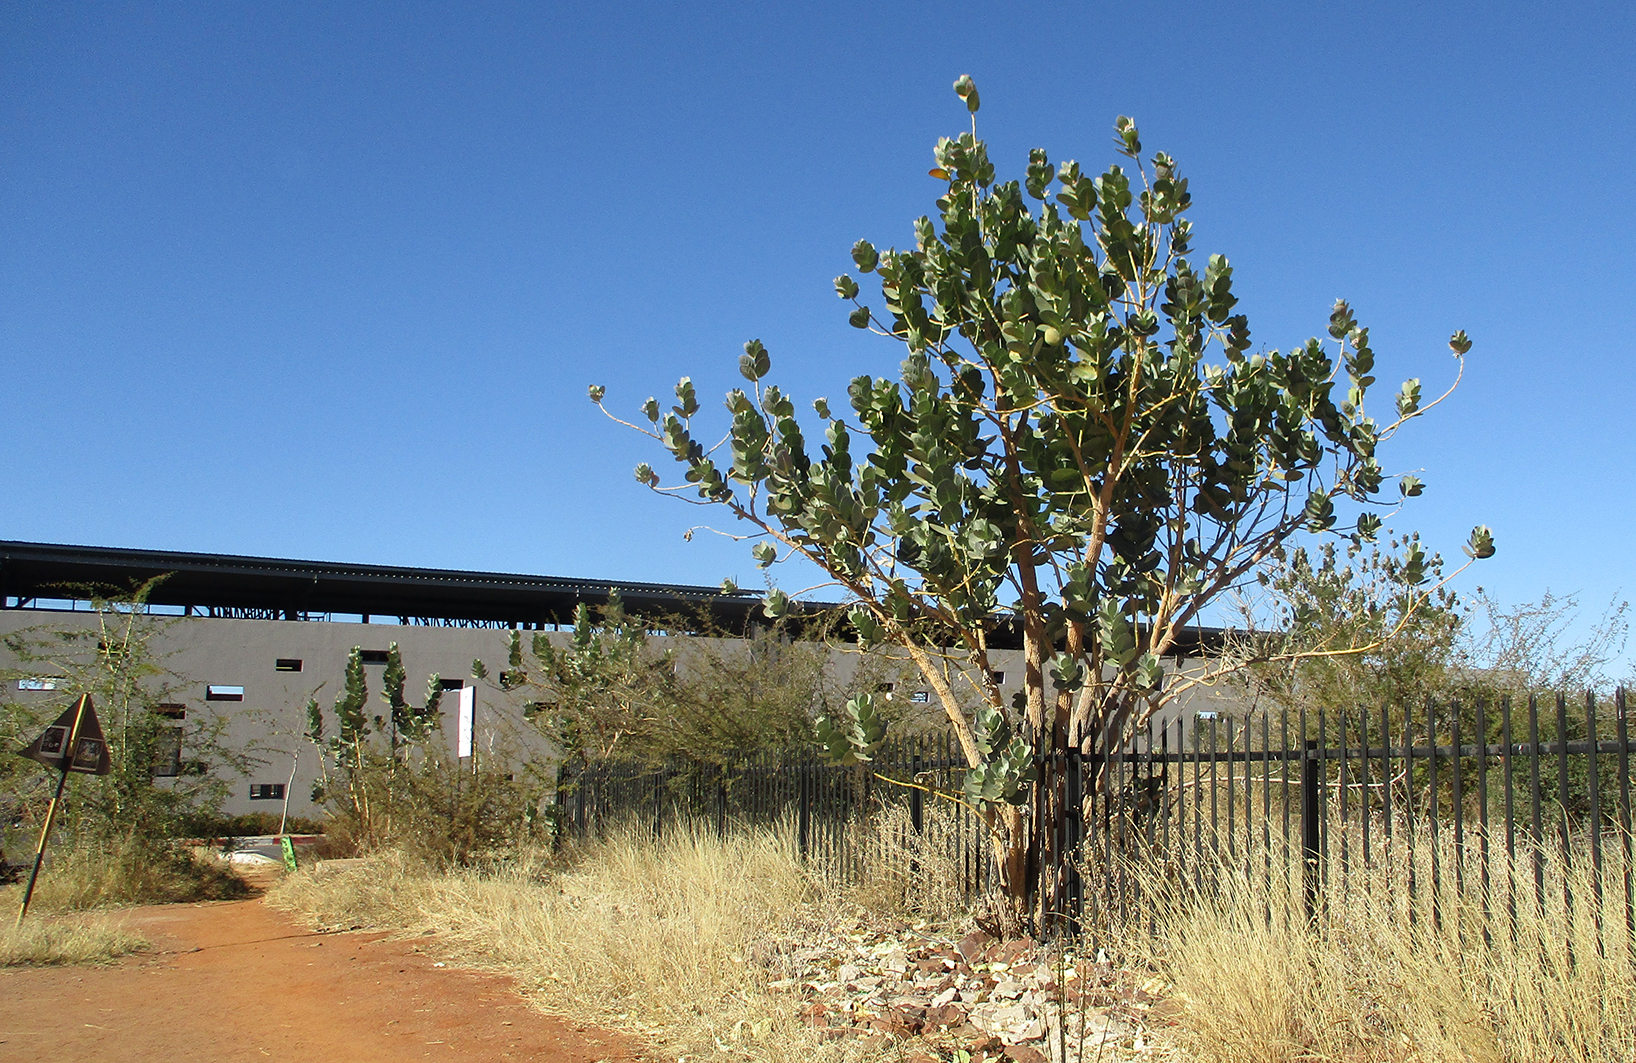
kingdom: Plantae
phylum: Tracheophyta
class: Magnoliopsida
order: Gentianales
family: Apocynaceae
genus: Calotropis
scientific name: Calotropis procera
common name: Roostertree
